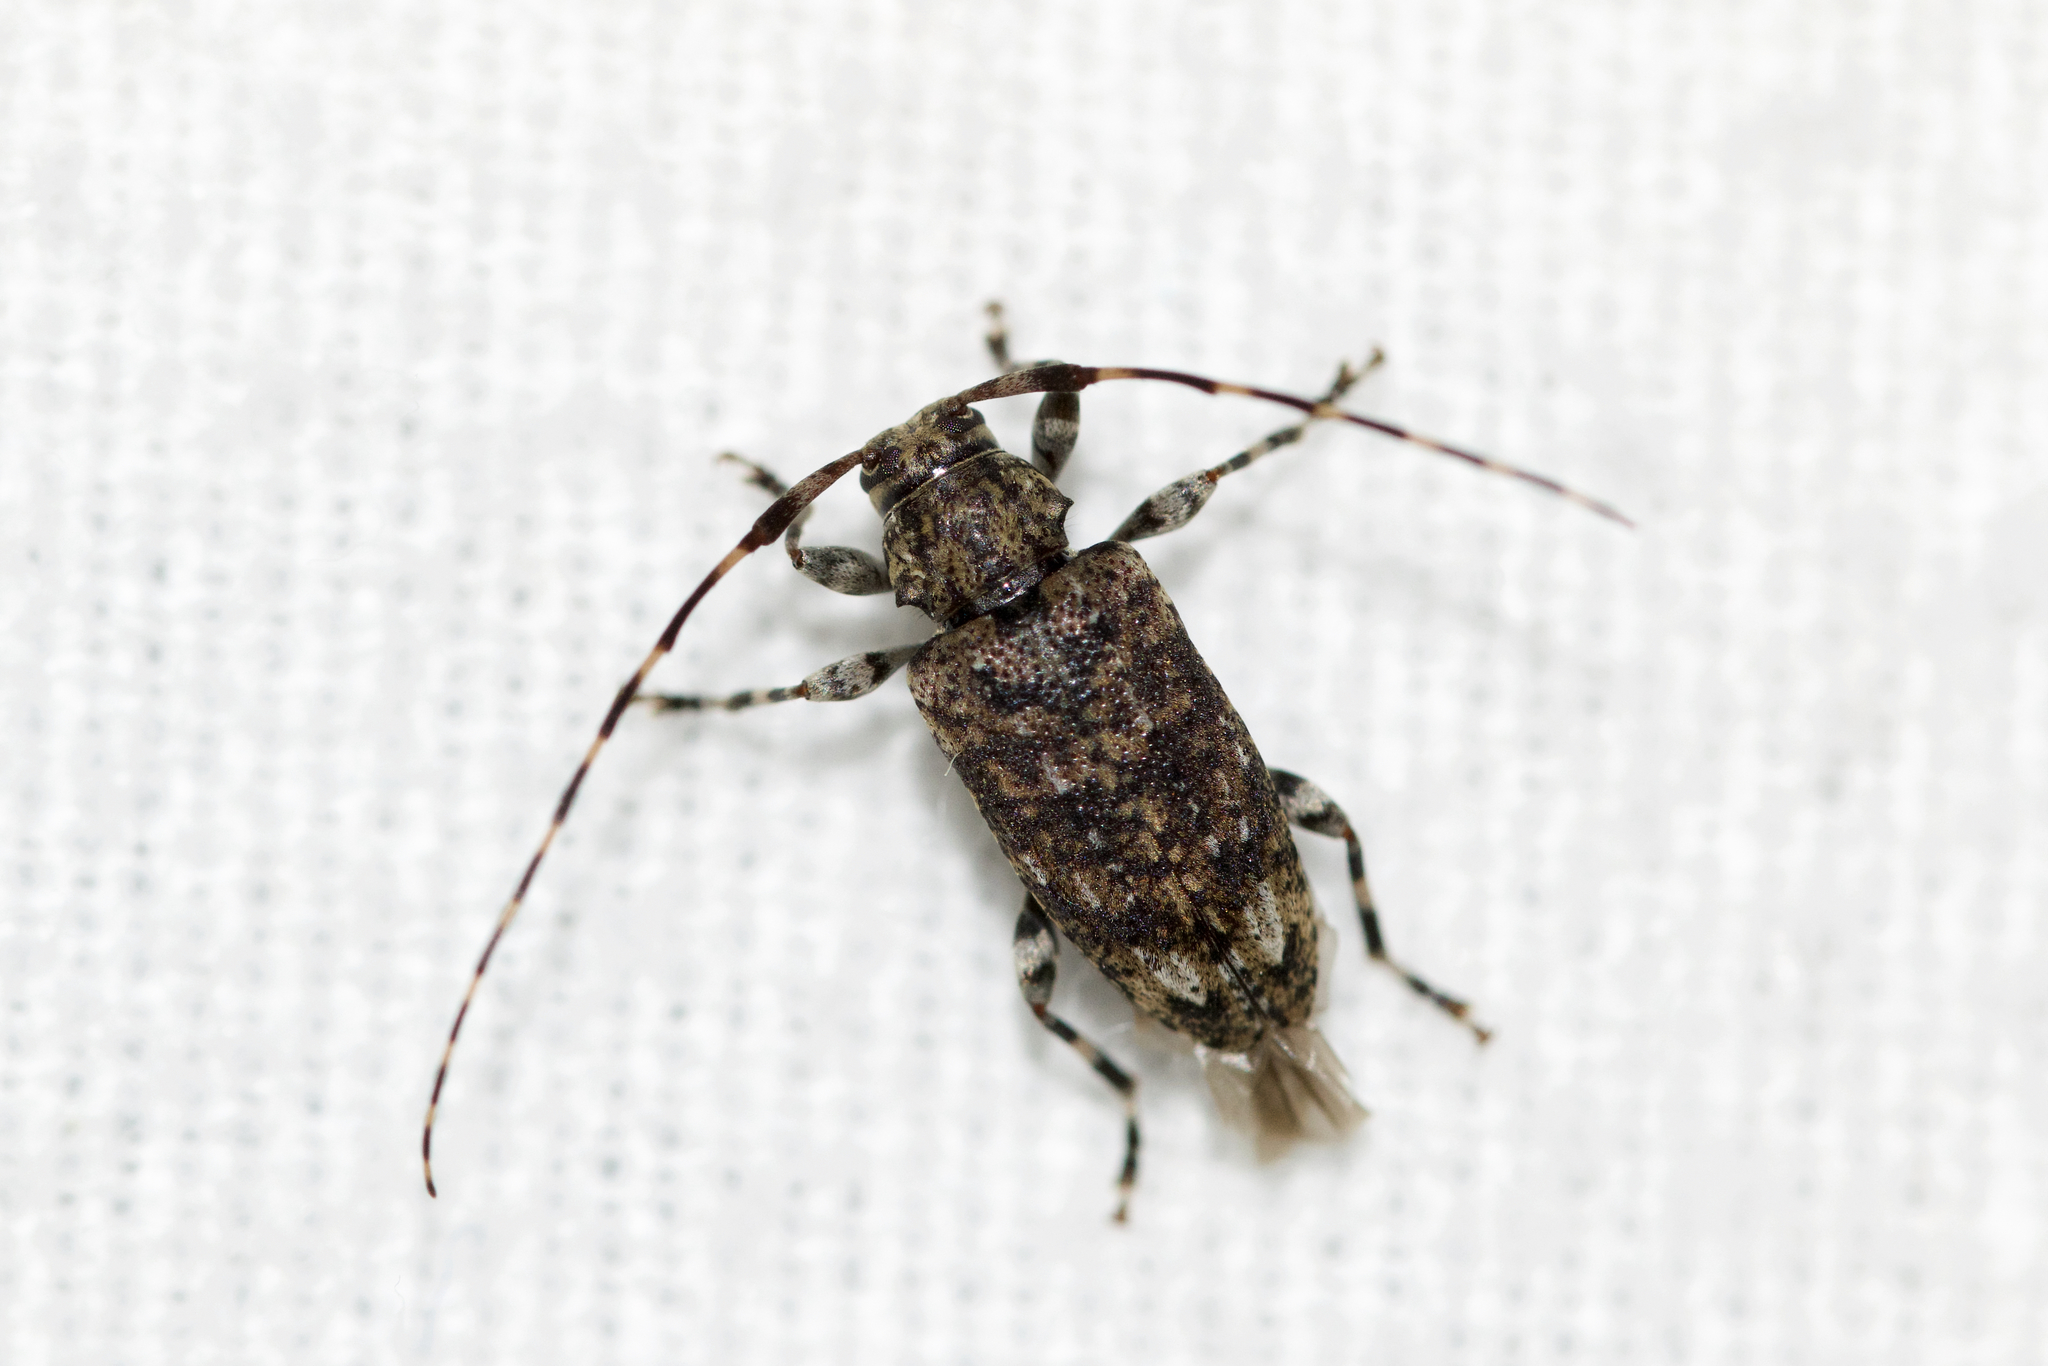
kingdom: Animalia
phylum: Arthropoda
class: Insecta
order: Coleoptera
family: Cerambycidae
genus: Astyleiopus
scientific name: Astyleiopus variegatus
